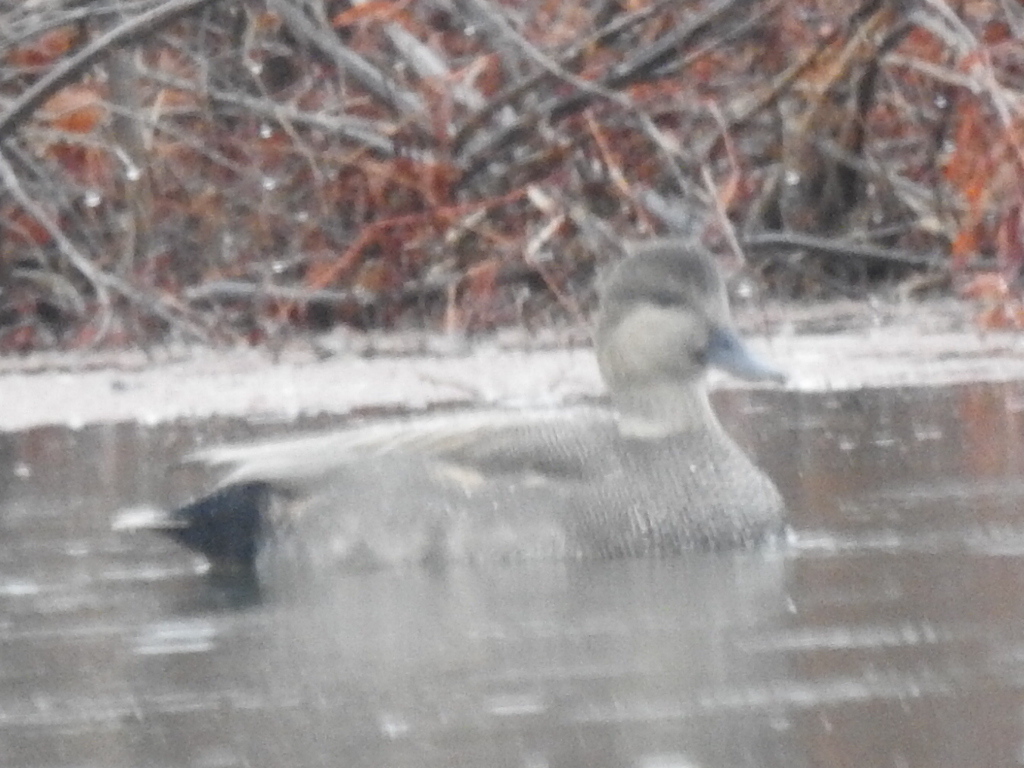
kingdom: Animalia
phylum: Chordata
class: Aves
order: Anseriformes
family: Anatidae
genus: Mareca
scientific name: Mareca strepera
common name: Gadwall
